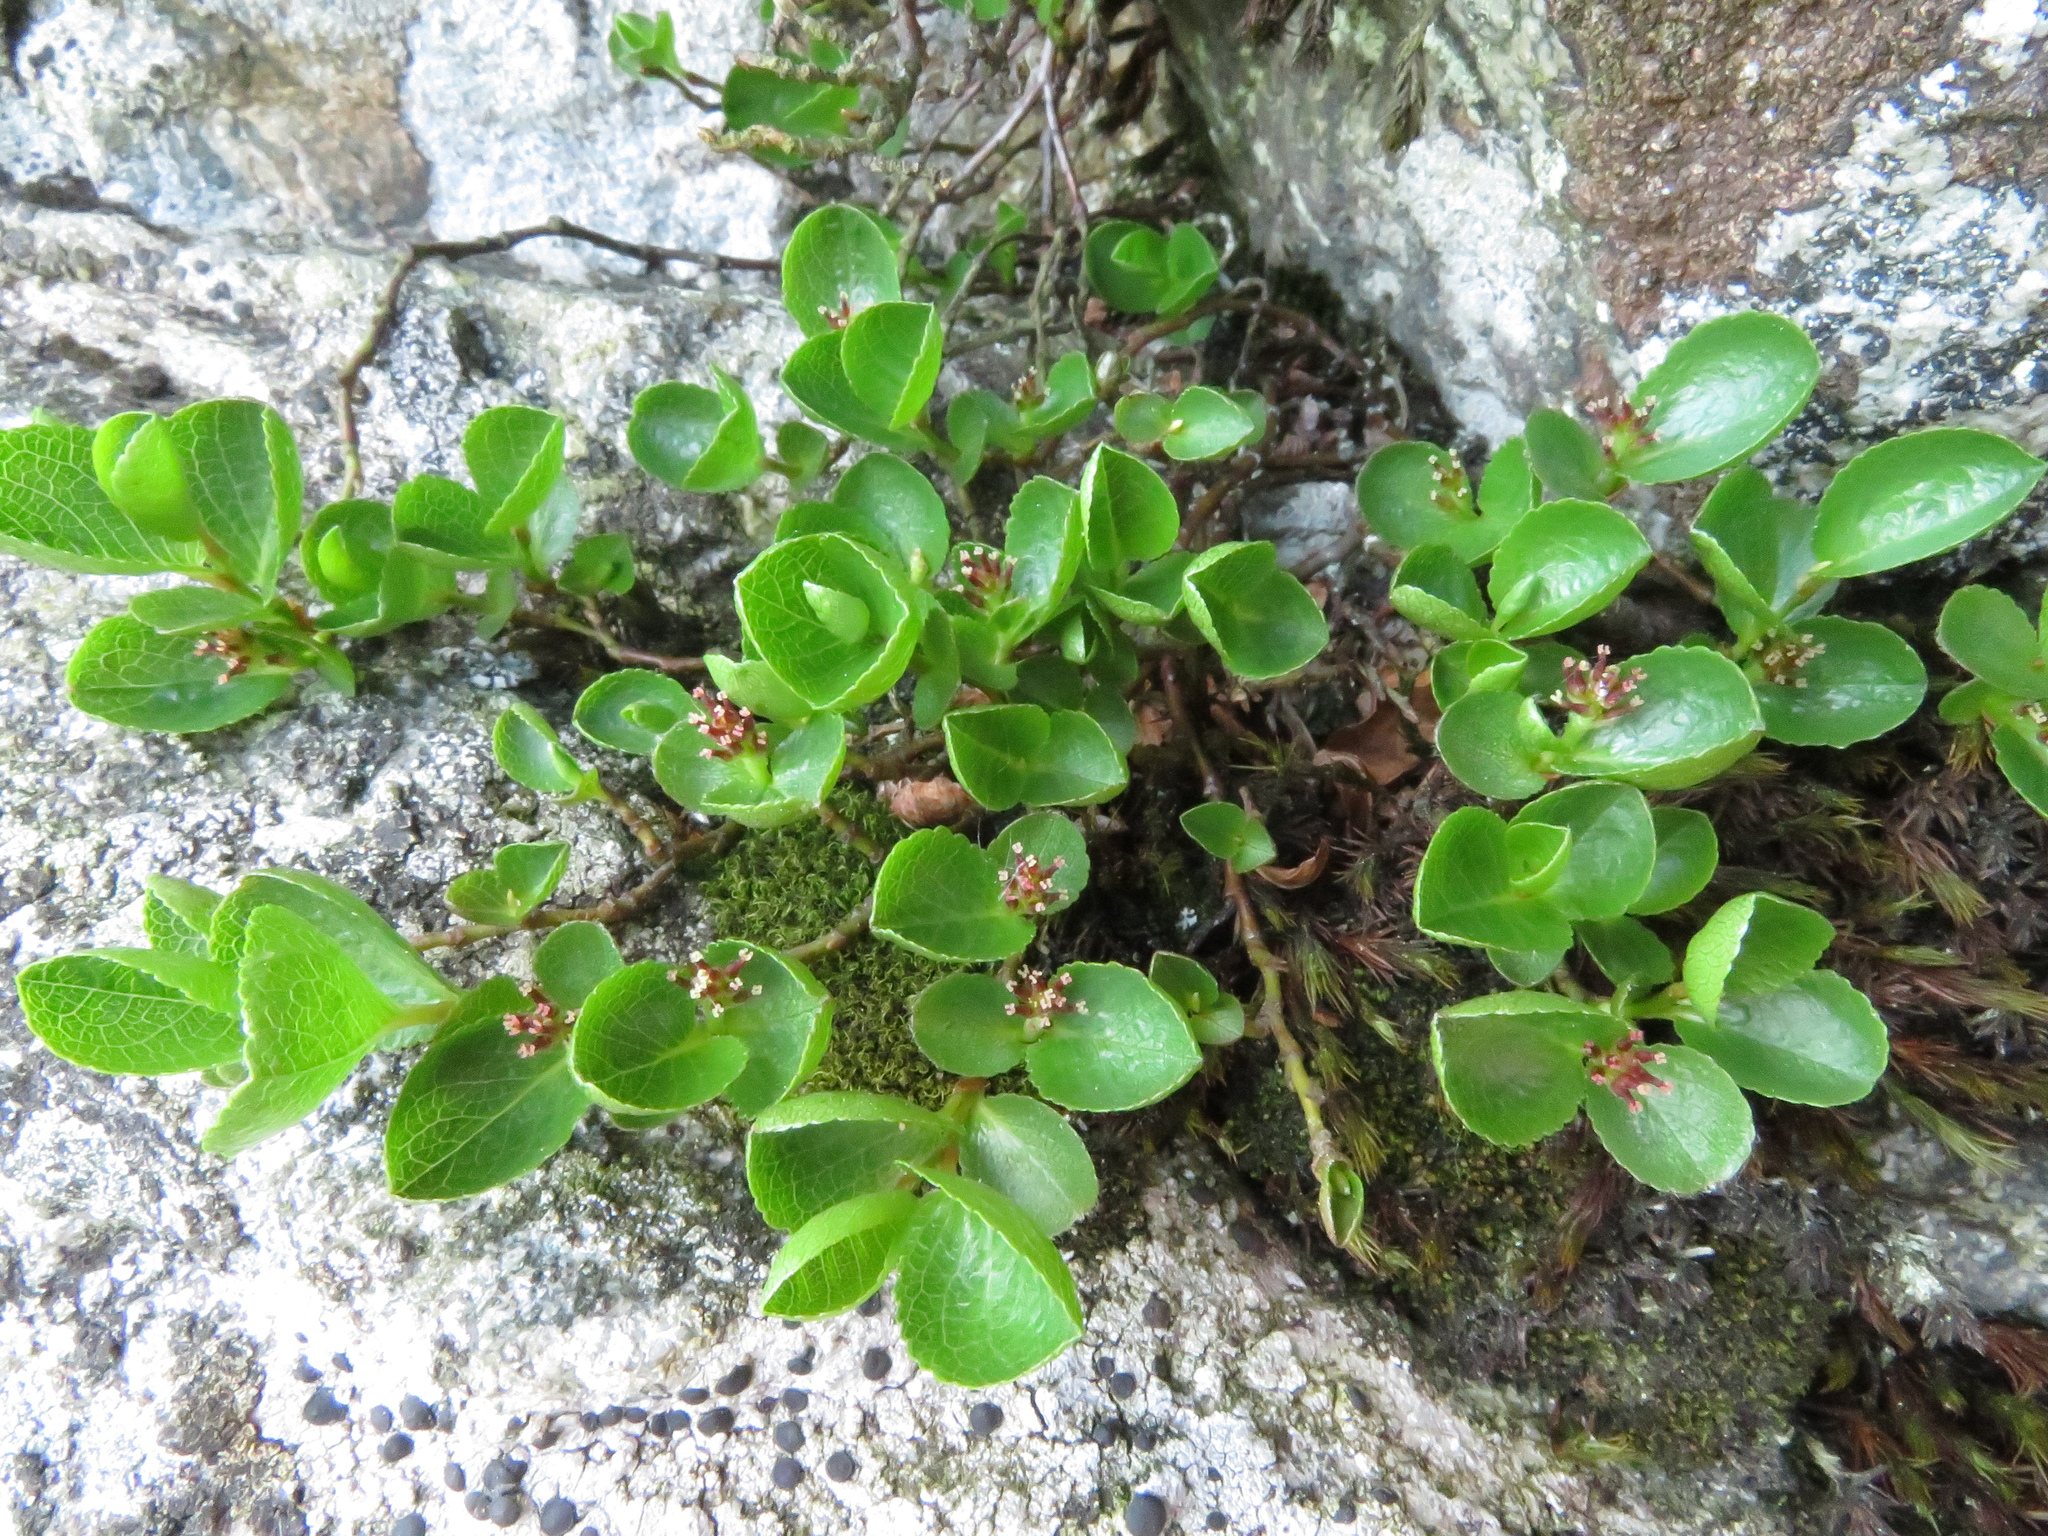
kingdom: Plantae
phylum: Tracheophyta
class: Magnoliopsida
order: Malpighiales
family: Salicaceae
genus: Salix
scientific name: Salix herbacea
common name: Dwarf willow
